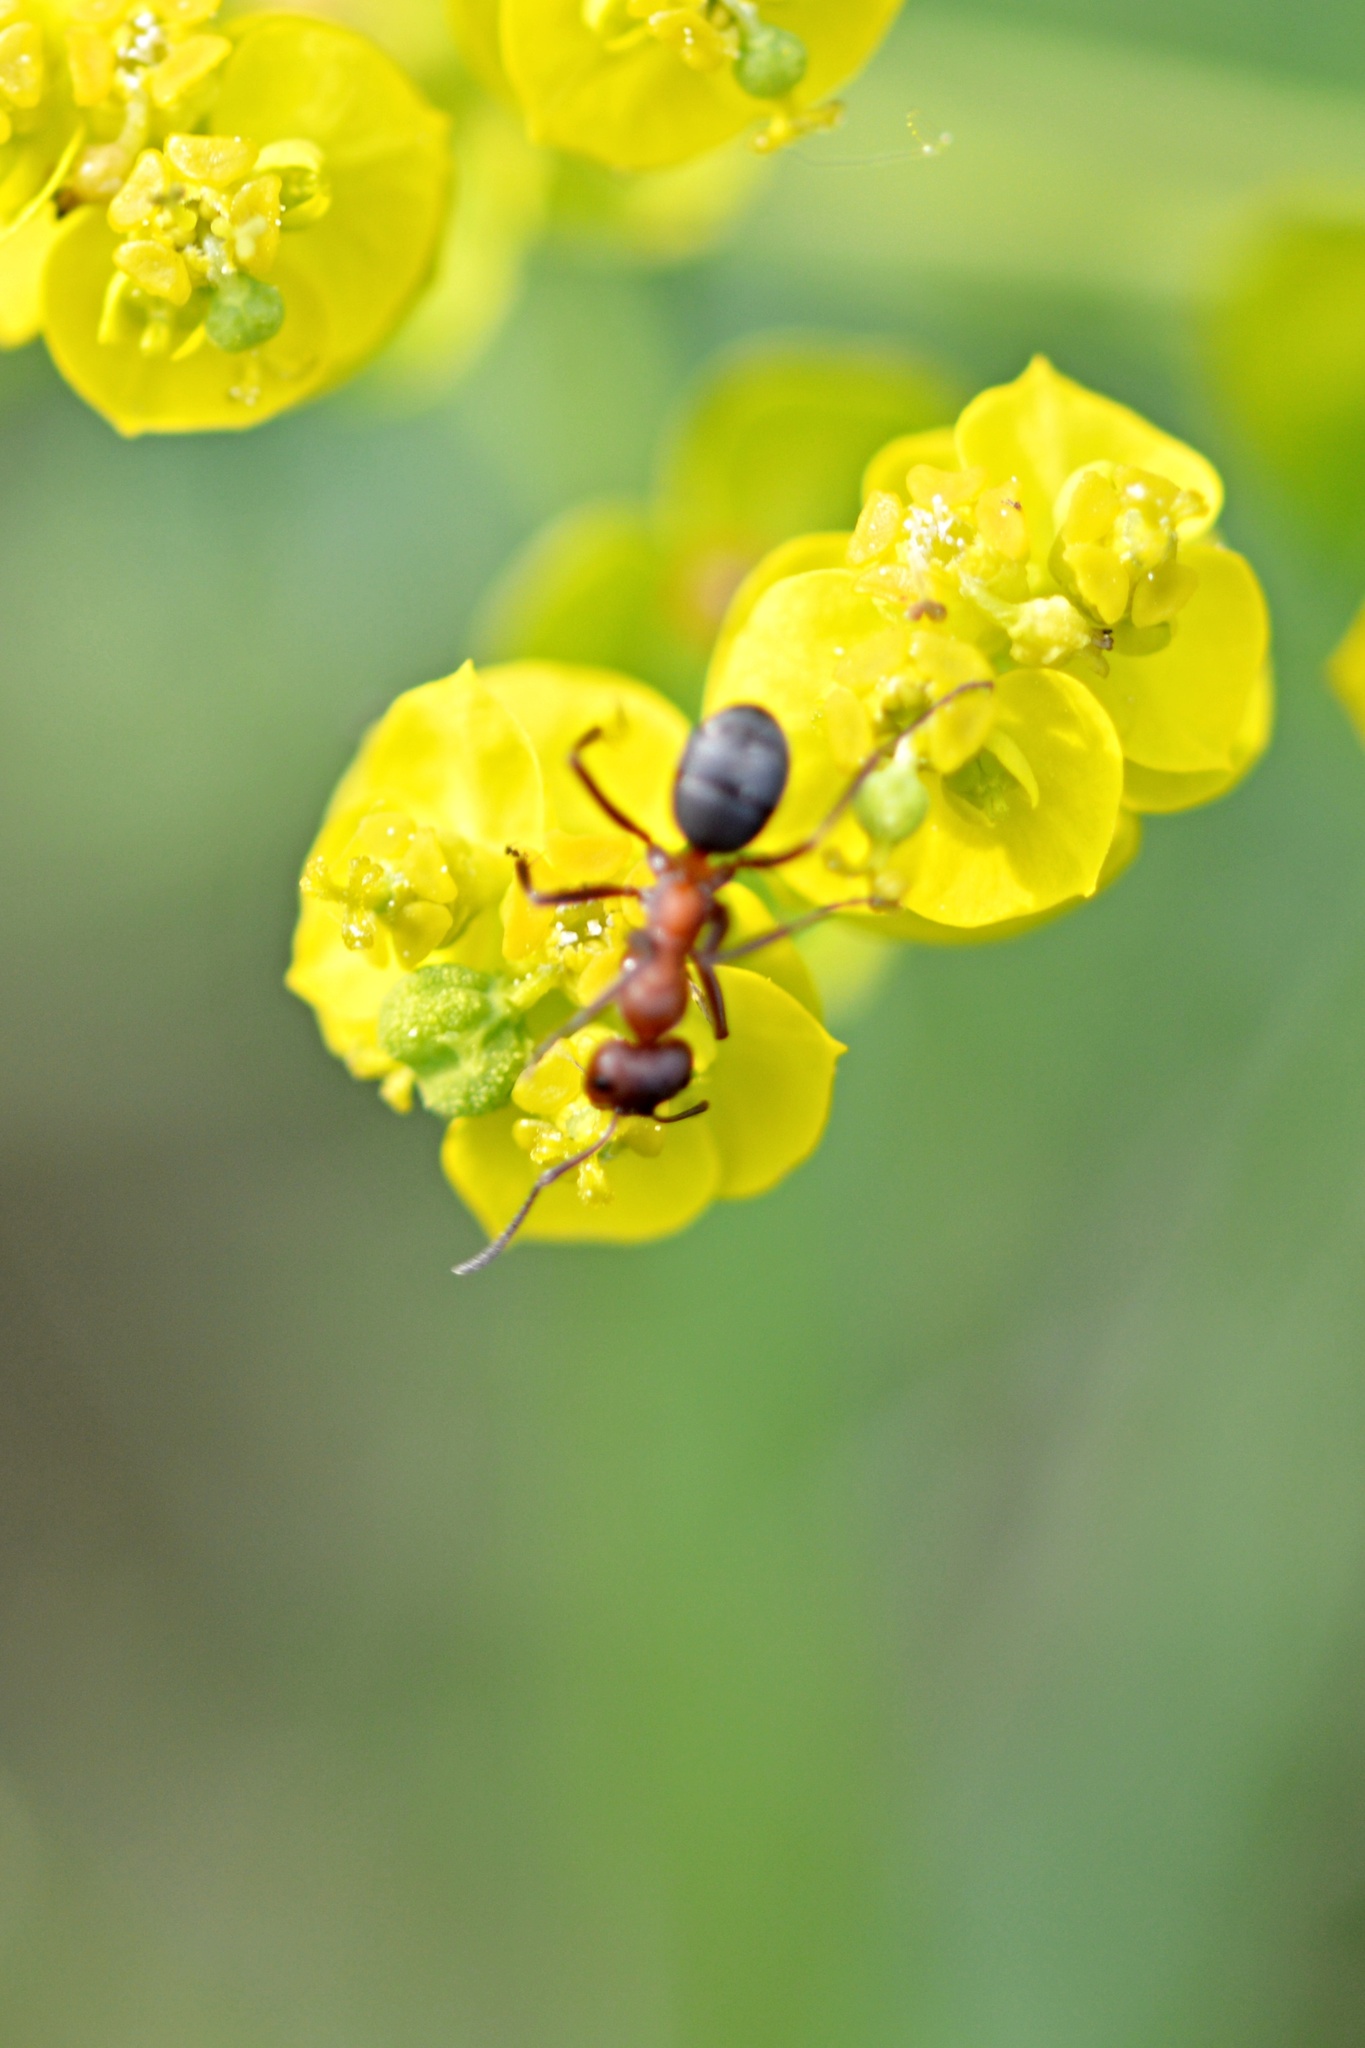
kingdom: Animalia
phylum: Arthropoda
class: Insecta
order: Hymenoptera
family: Formicidae
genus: Formica
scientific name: Formica sanguinea
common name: Blood-red ant
